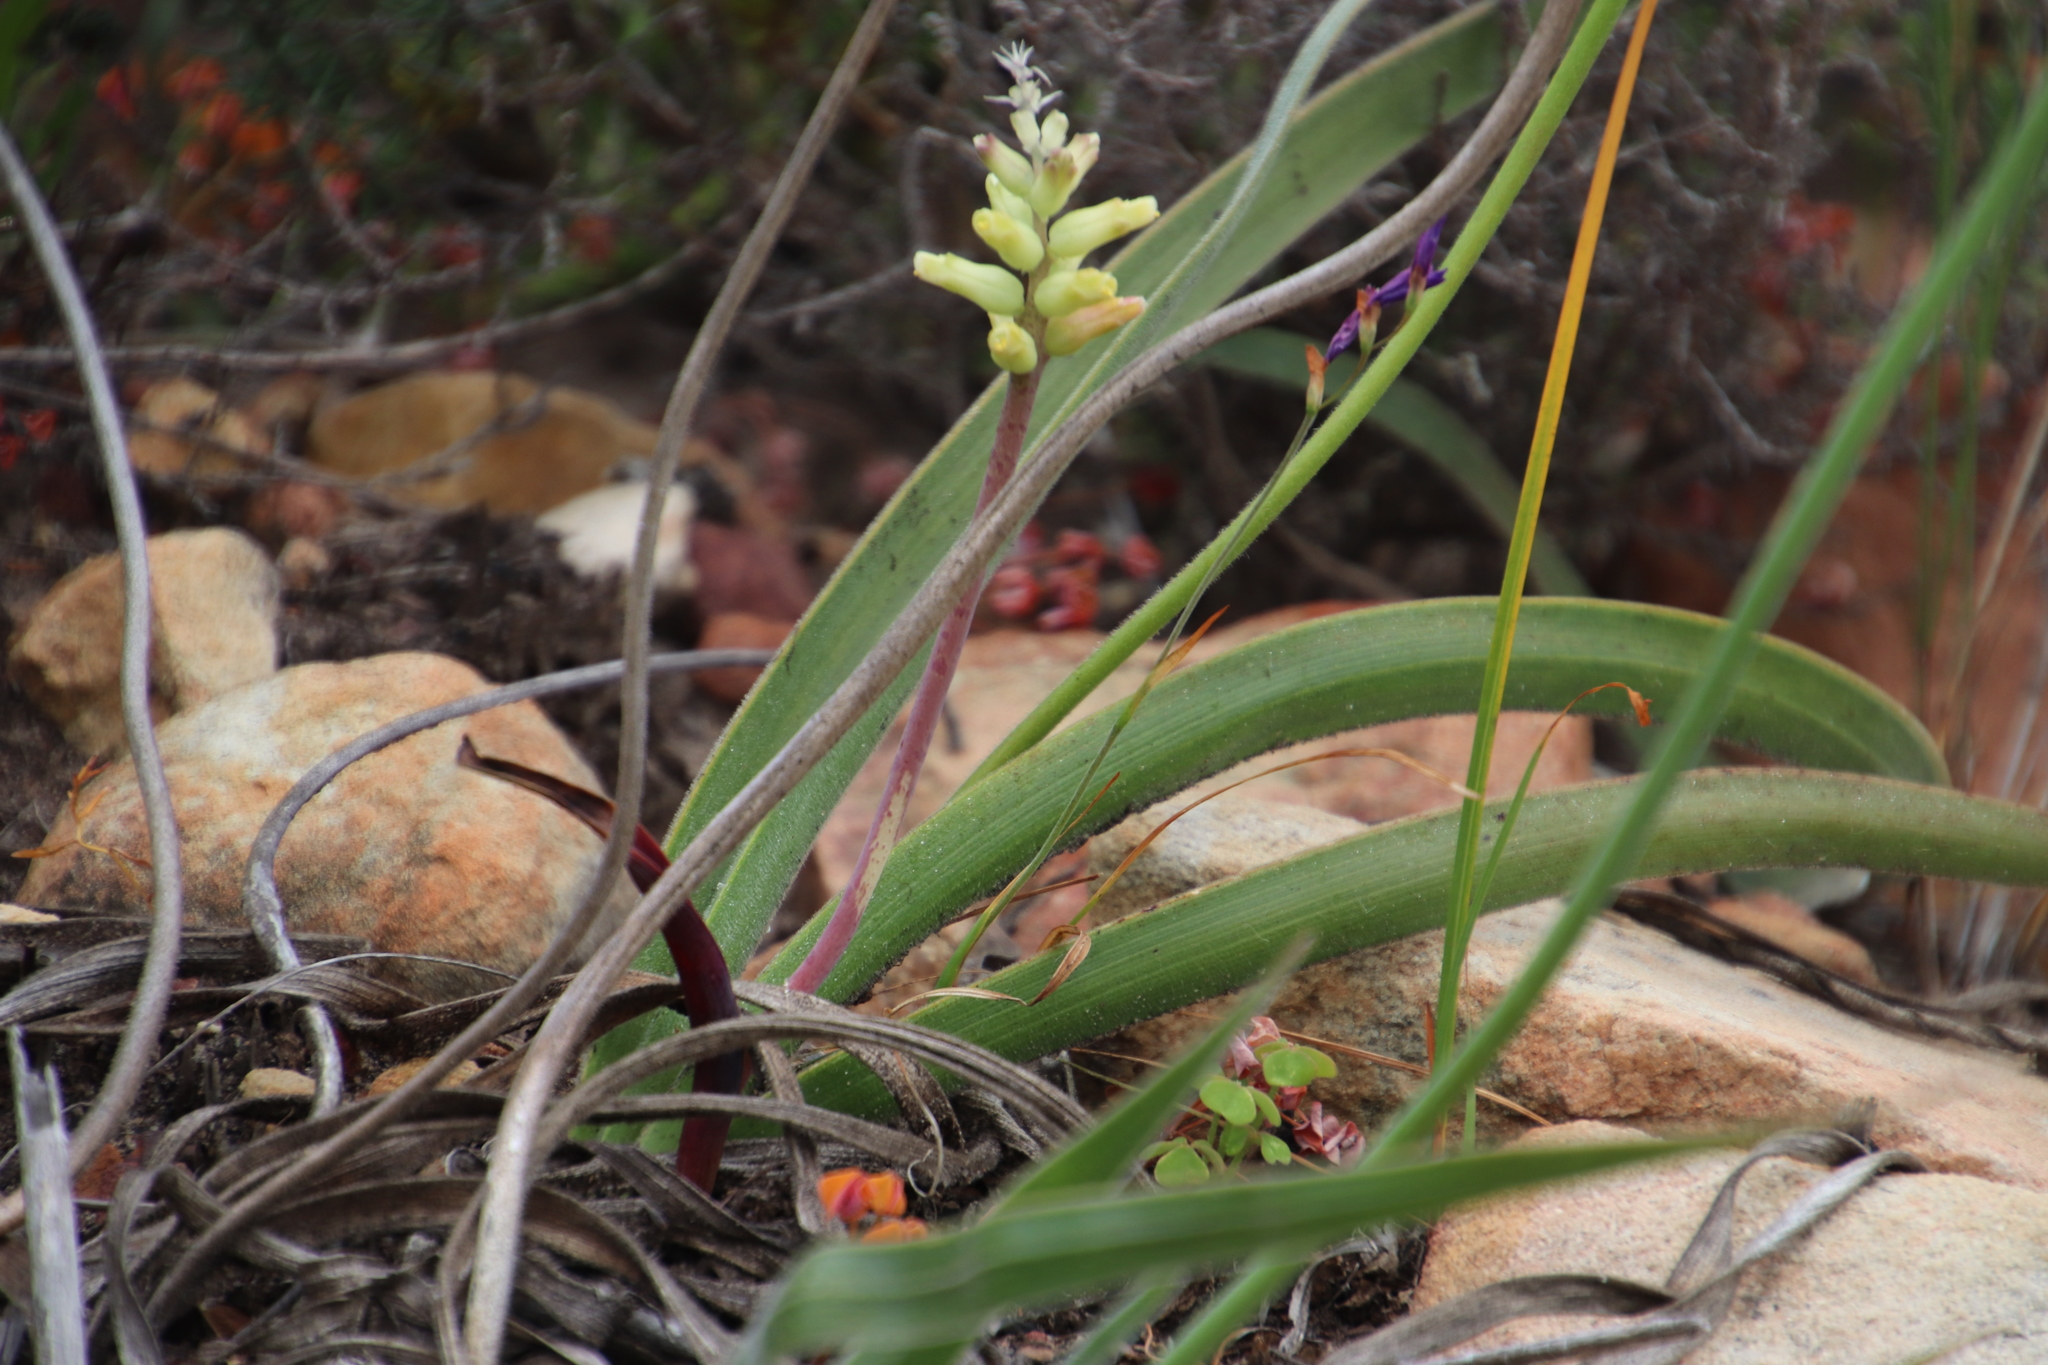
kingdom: Plantae
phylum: Tracheophyta
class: Liliopsida
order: Asparagales
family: Asparagaceae
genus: Lachenalia
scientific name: Lachenalia capensis
